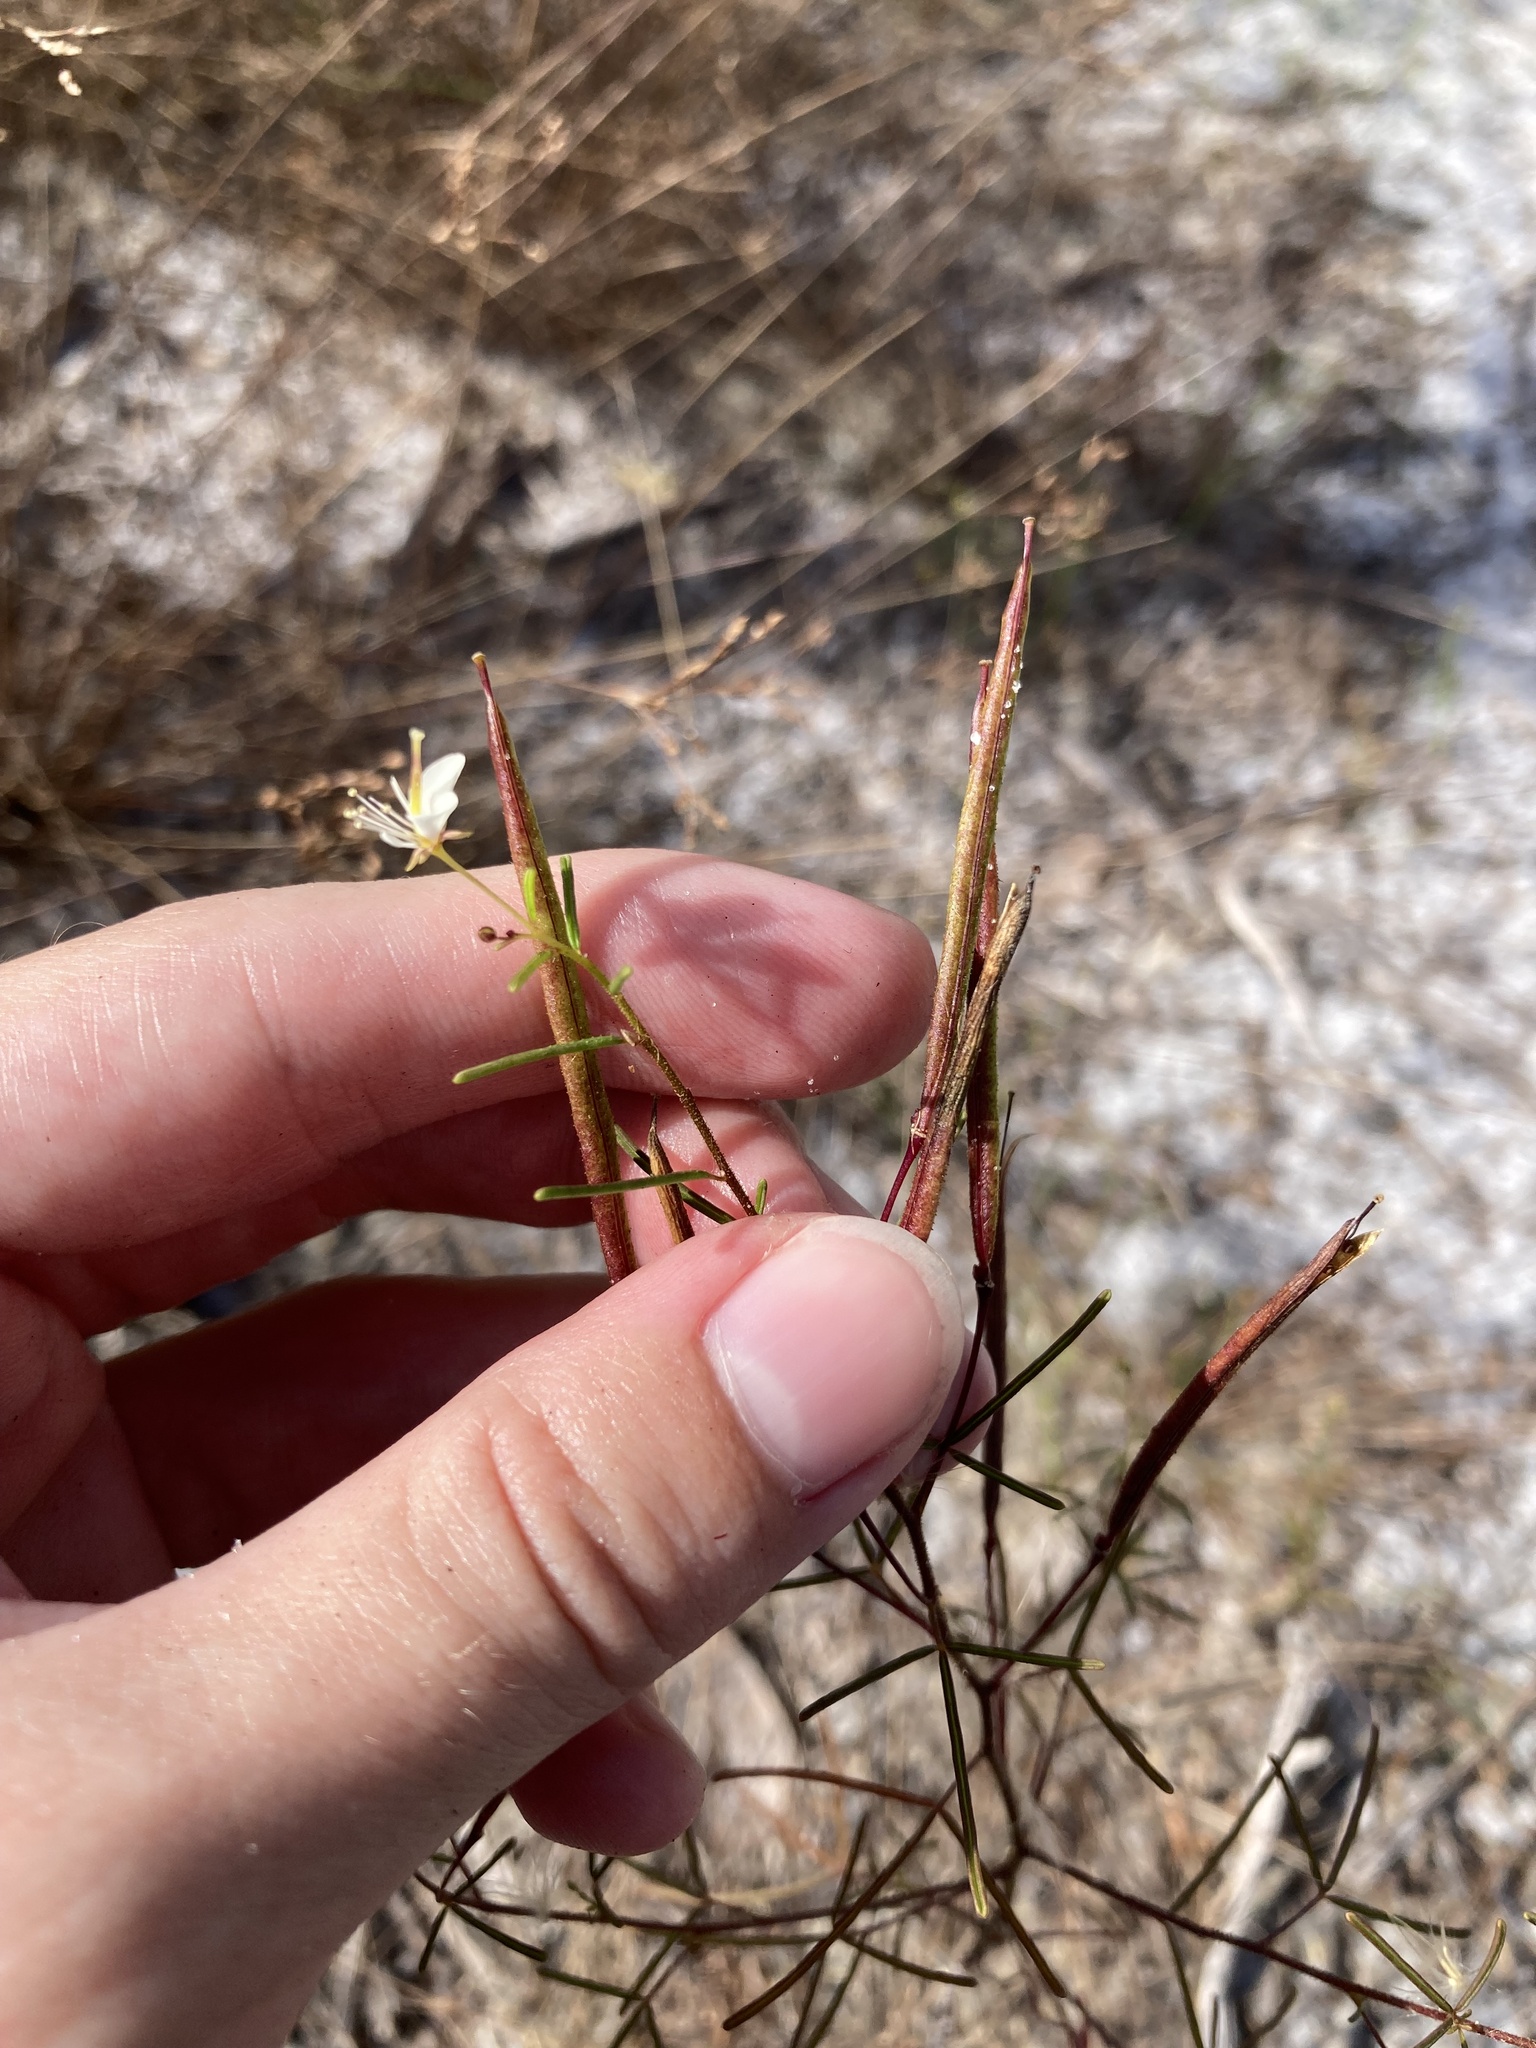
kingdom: Plantae
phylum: Tracheophyta
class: Magnoliopsida
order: Brassicales
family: Cleomaceae
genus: Polanisia
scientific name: Polanisia tenuifolia
